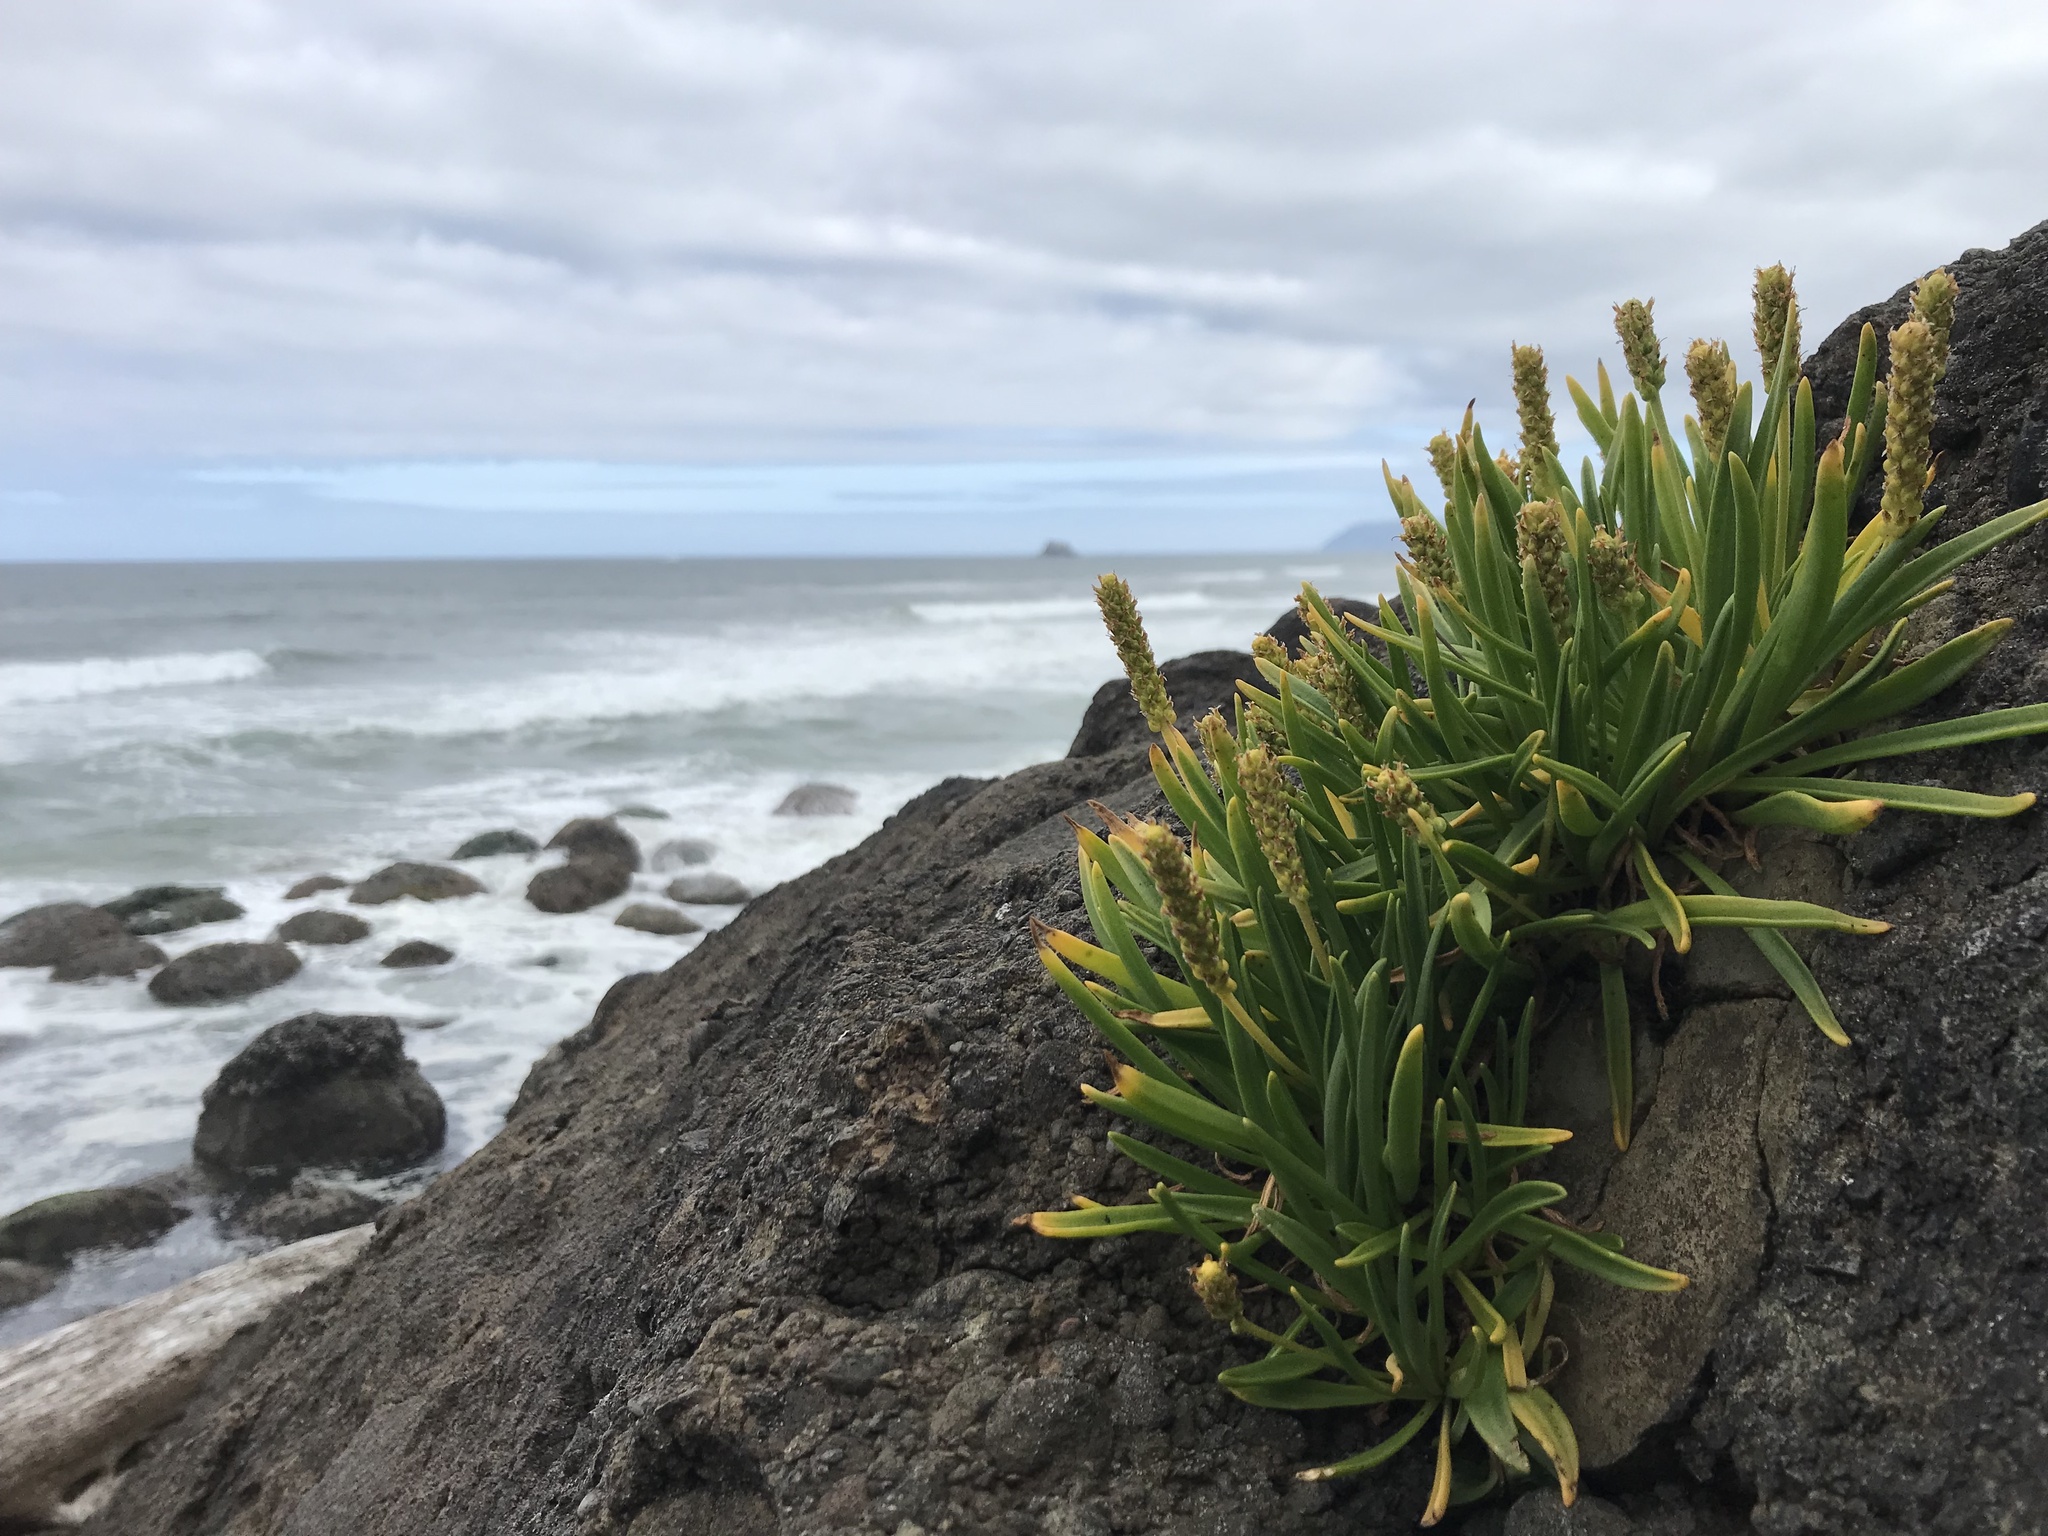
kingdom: Plantae
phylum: Tracheophyta
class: Magnoliopsida
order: Lamiales
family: Plantaginaceae
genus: Plantago
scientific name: Plantago maritima
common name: Sea plantain
